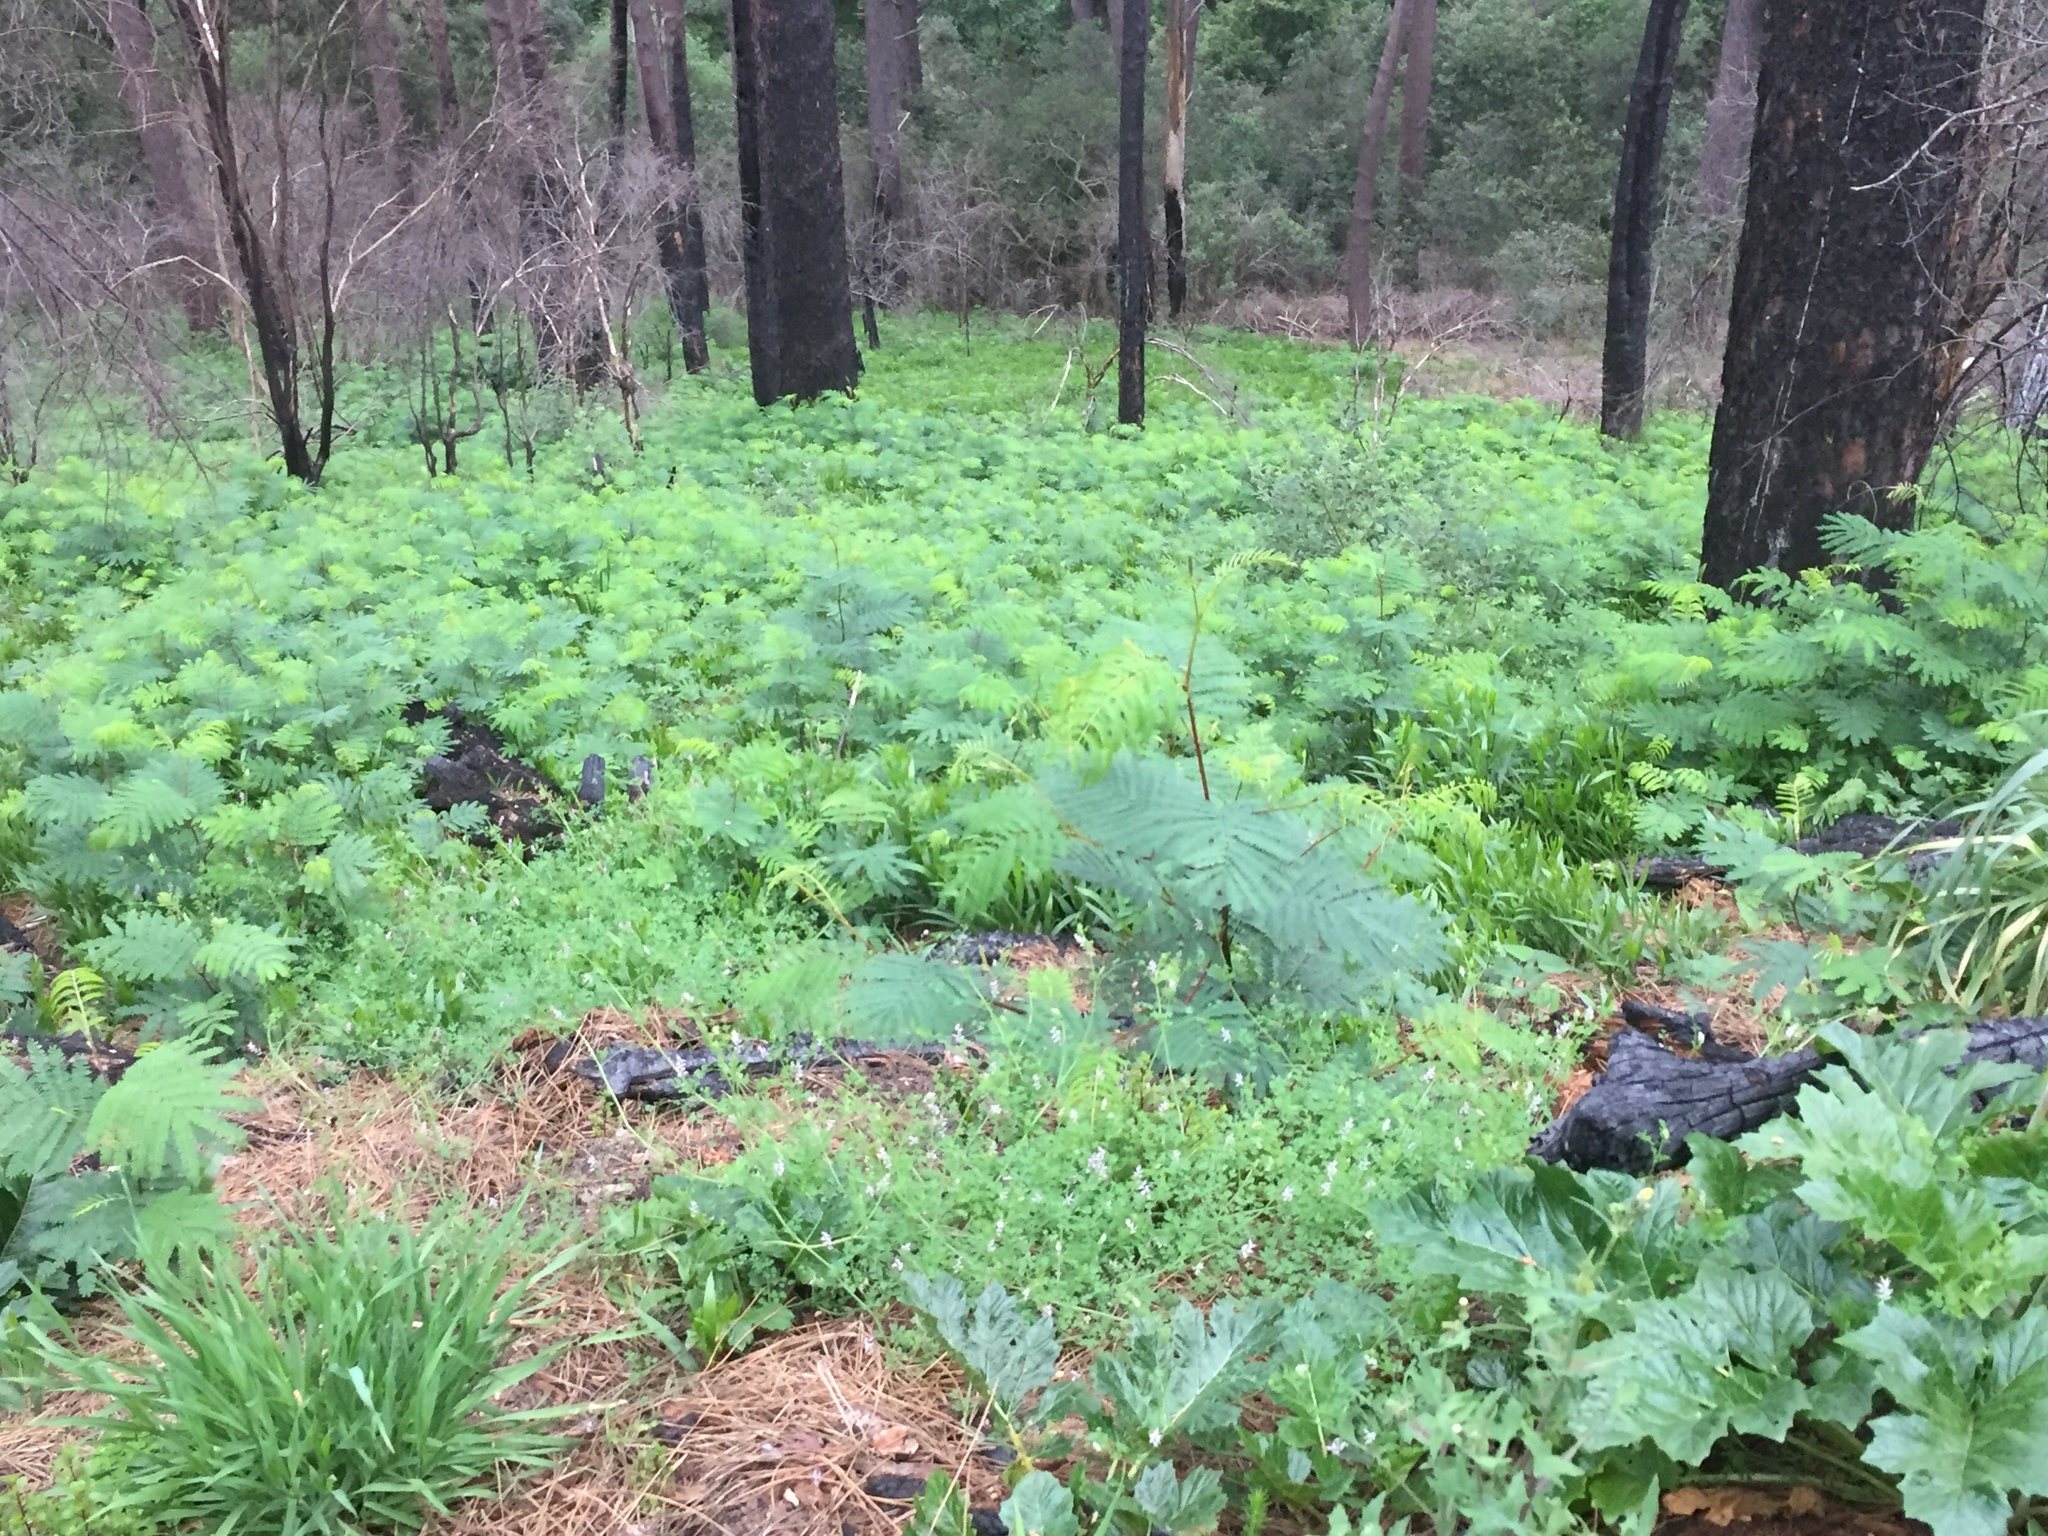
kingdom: Plantae
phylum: Tracheophyta
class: Magnoliopsida
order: Fabales
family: Fabaceae
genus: Paraserianthes
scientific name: Paraserianthes lophantha
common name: Plume albizia
